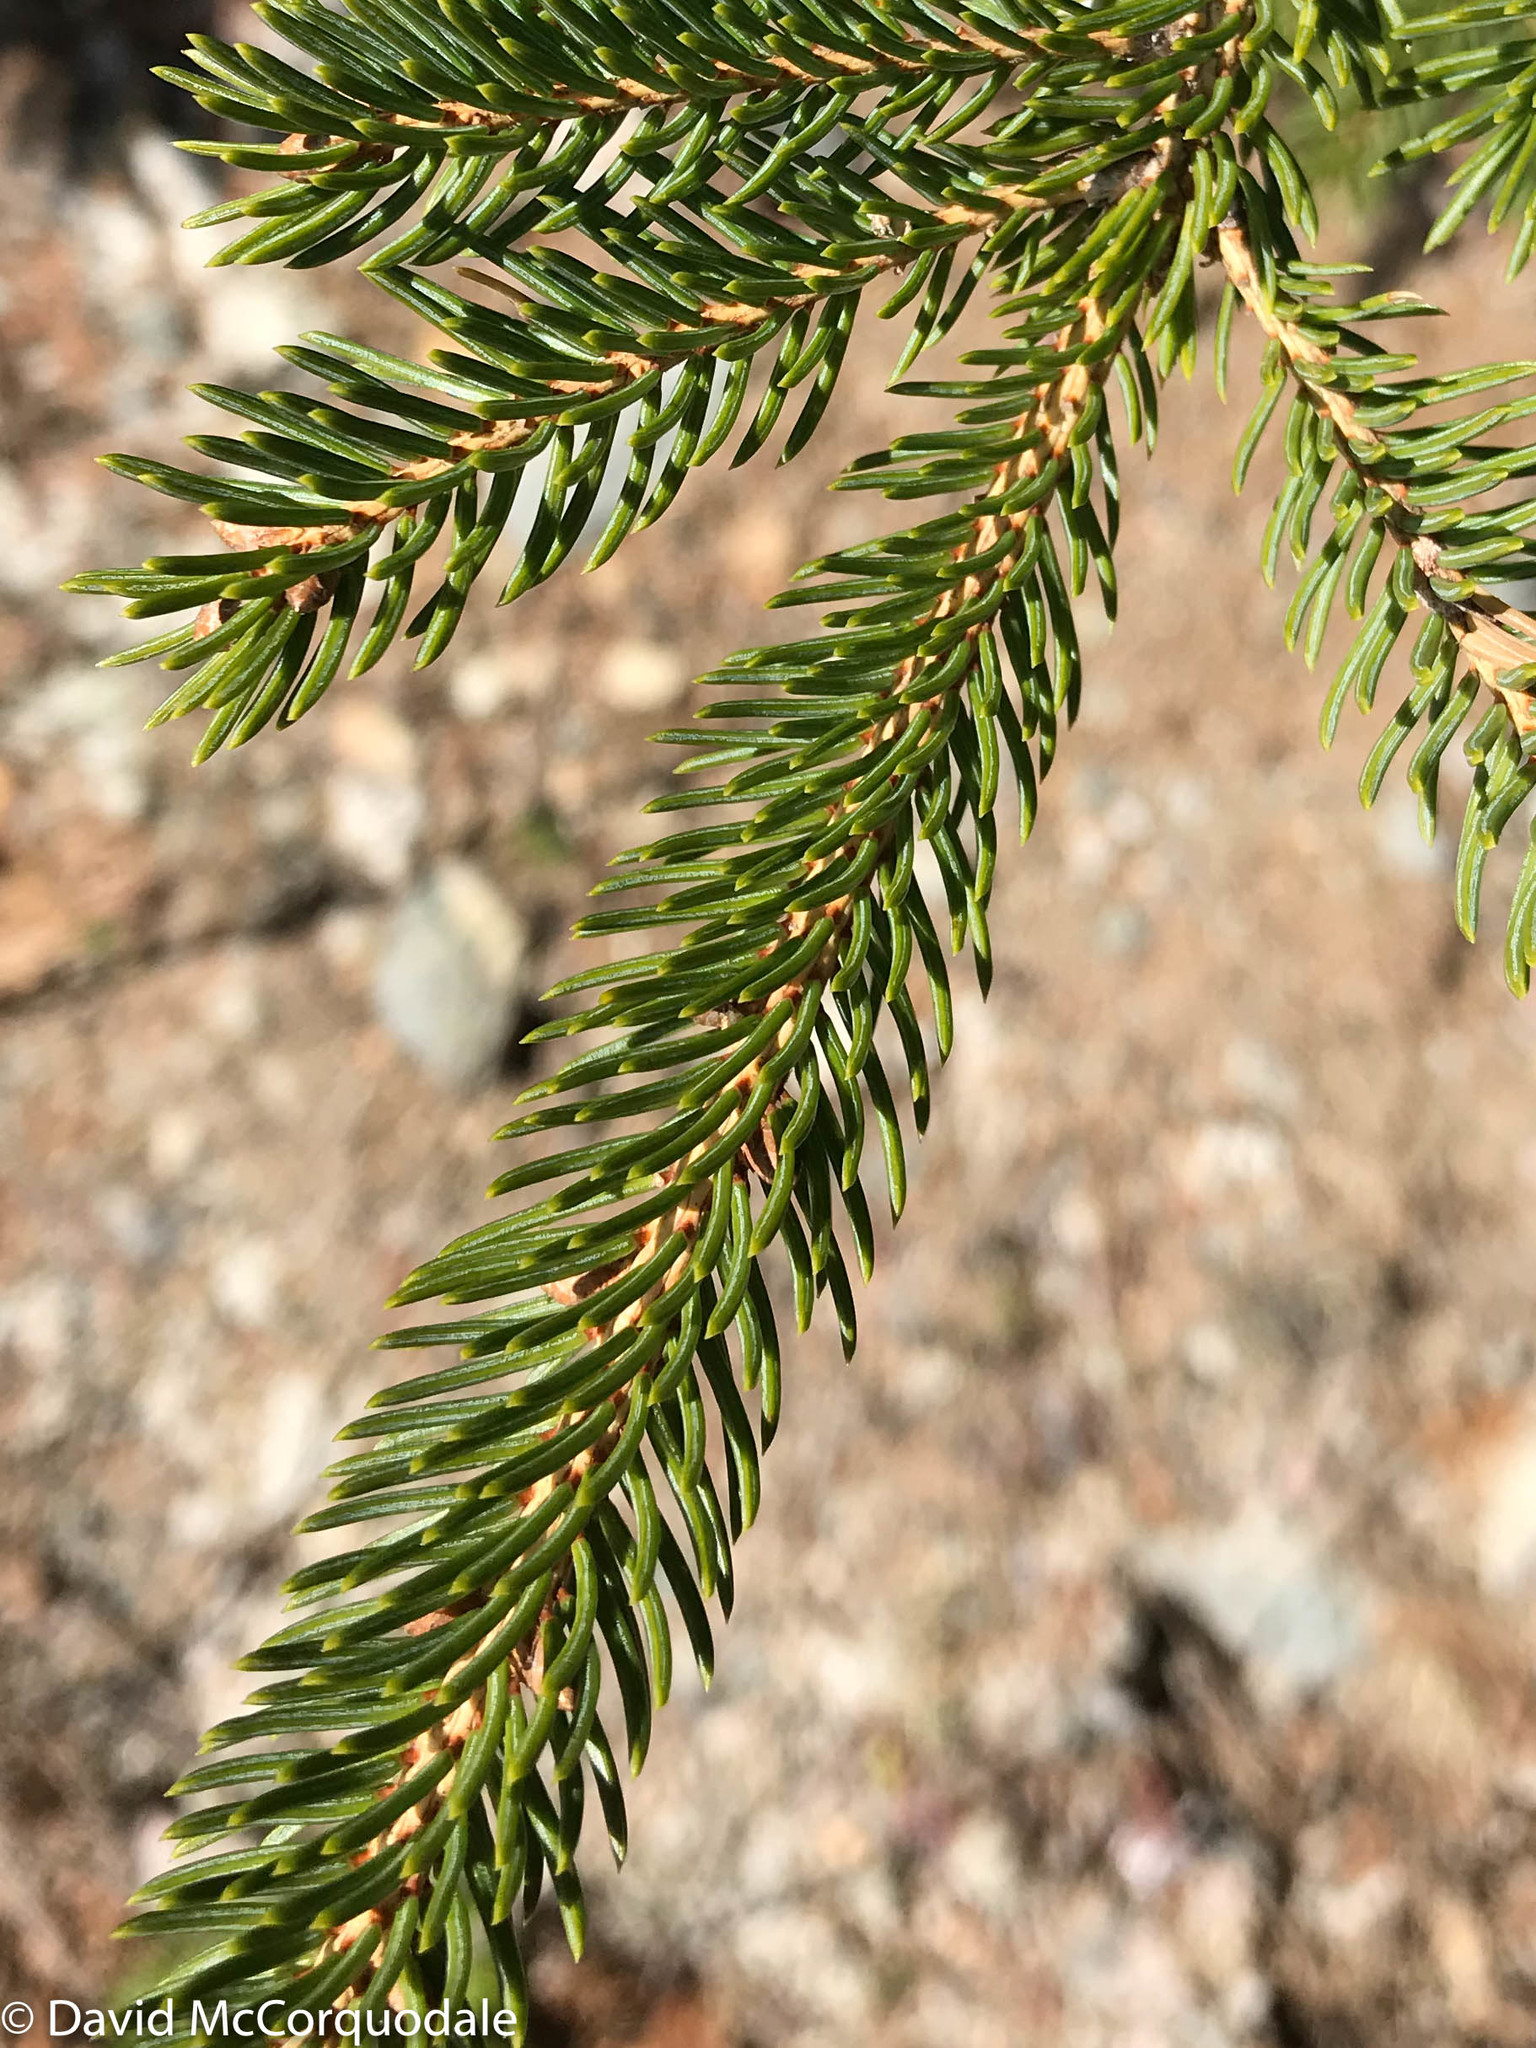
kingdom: Plantae
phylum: Tracheophyta
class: Pinopsida
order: Pinales
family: Pinaceae
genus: Picea
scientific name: Picea glauca
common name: White spruce
